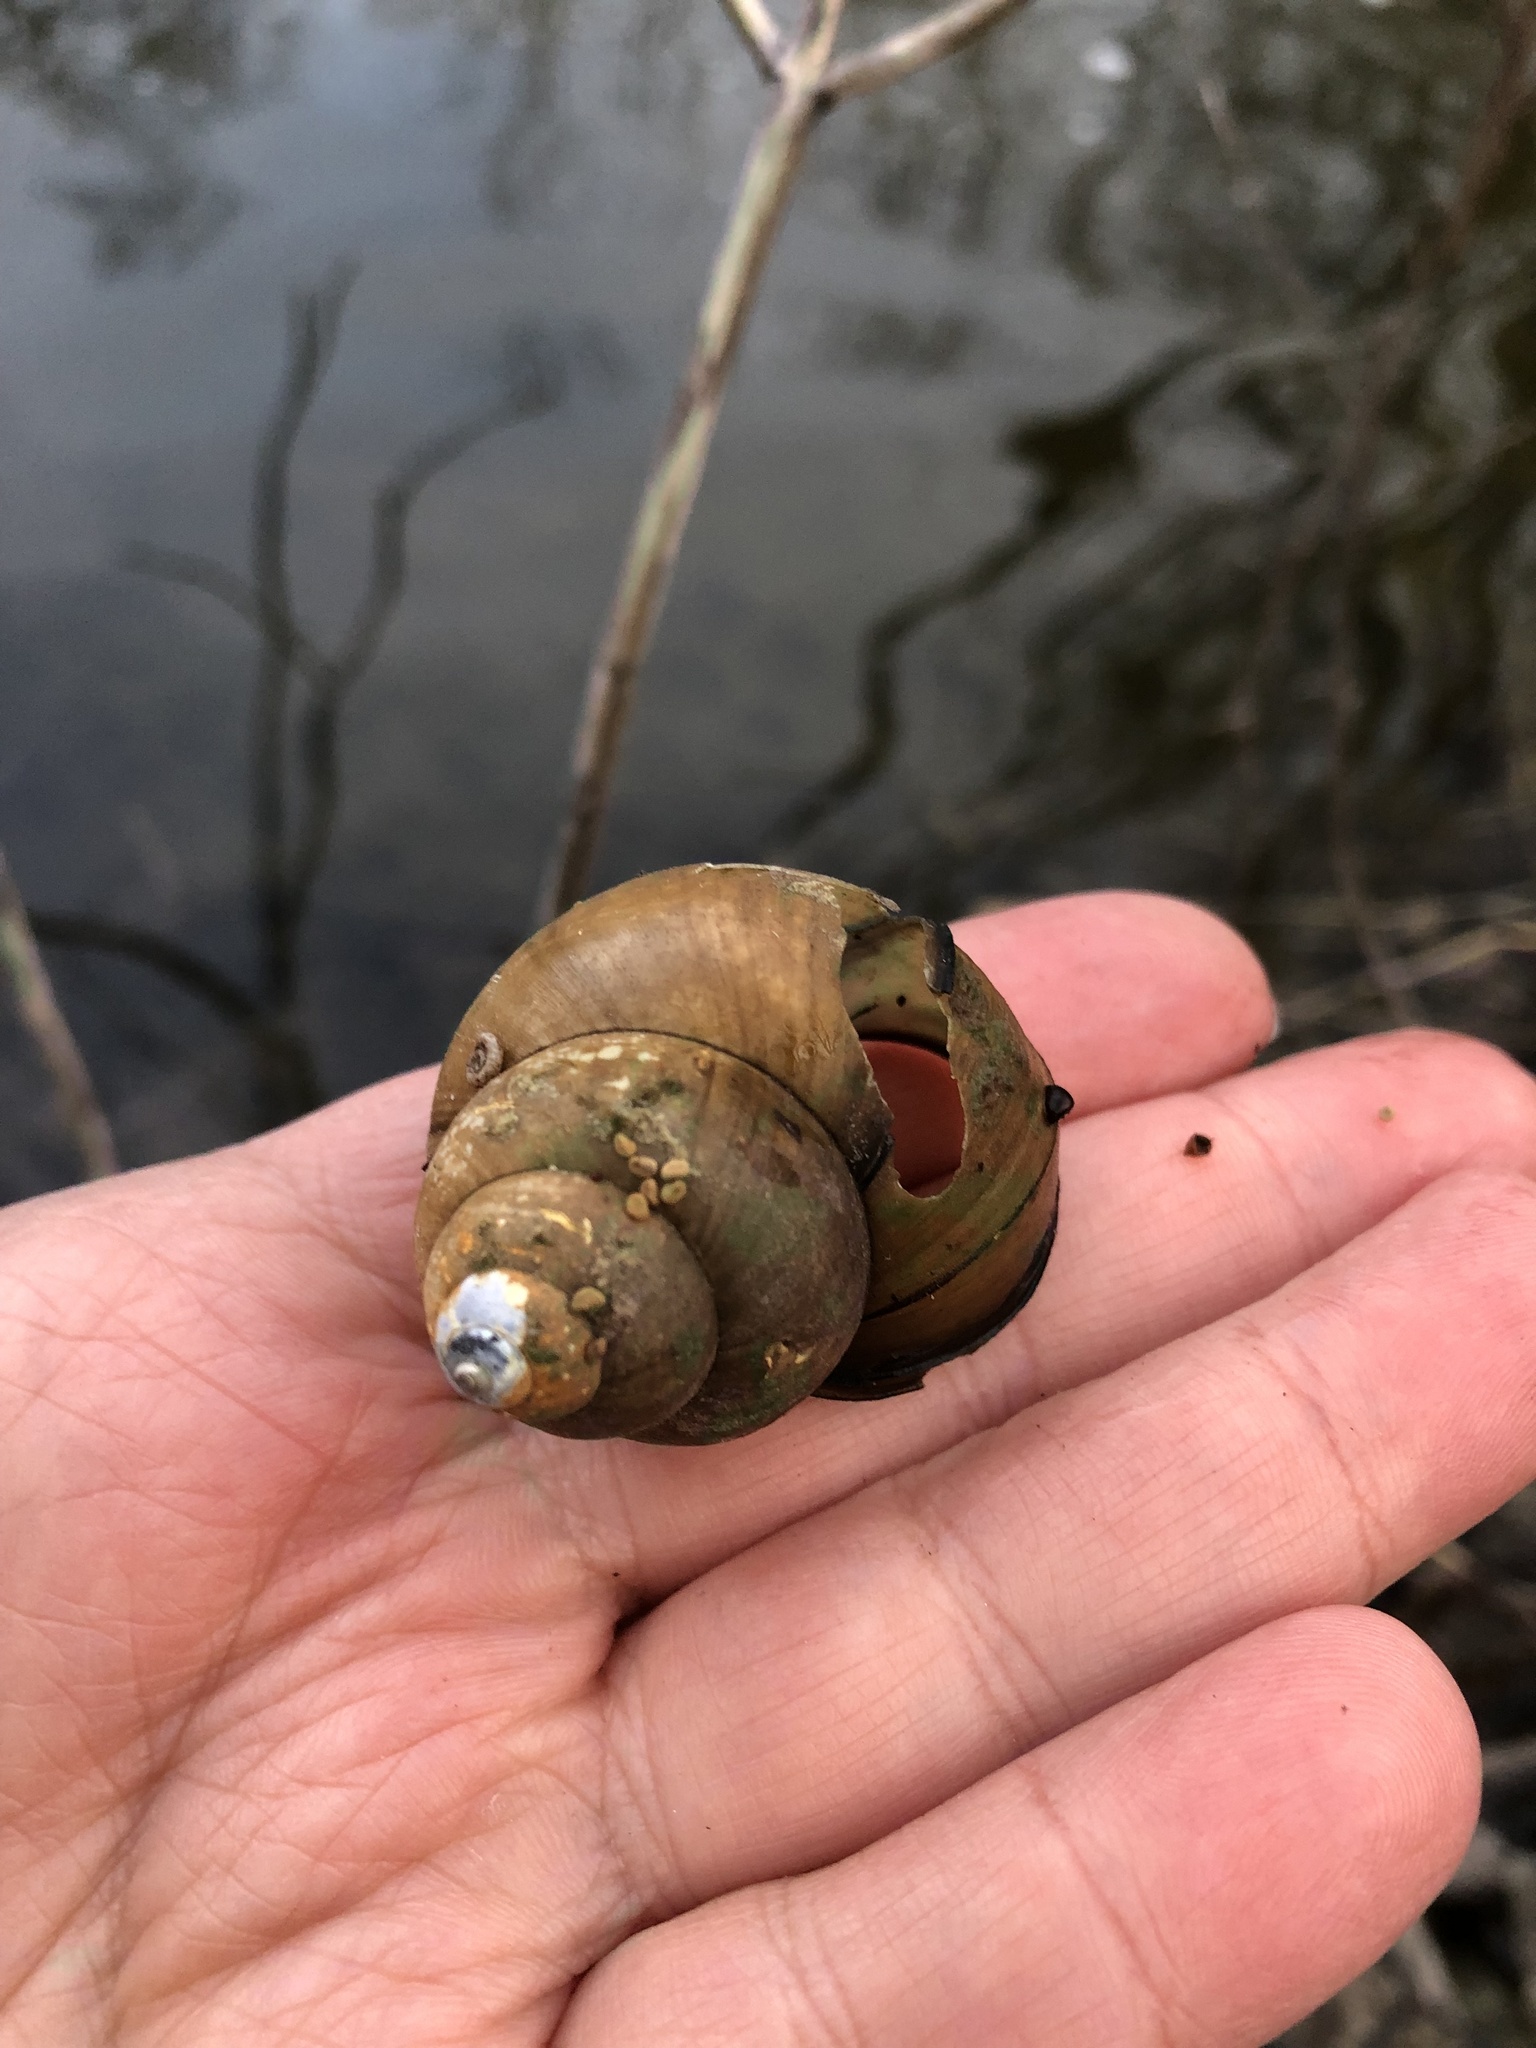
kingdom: Animalia
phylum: Mollusca
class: Gastropoda
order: Architaenioglossa
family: Viviparidae
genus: Cipangopaludina
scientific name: Cipangopaludina chinensis
